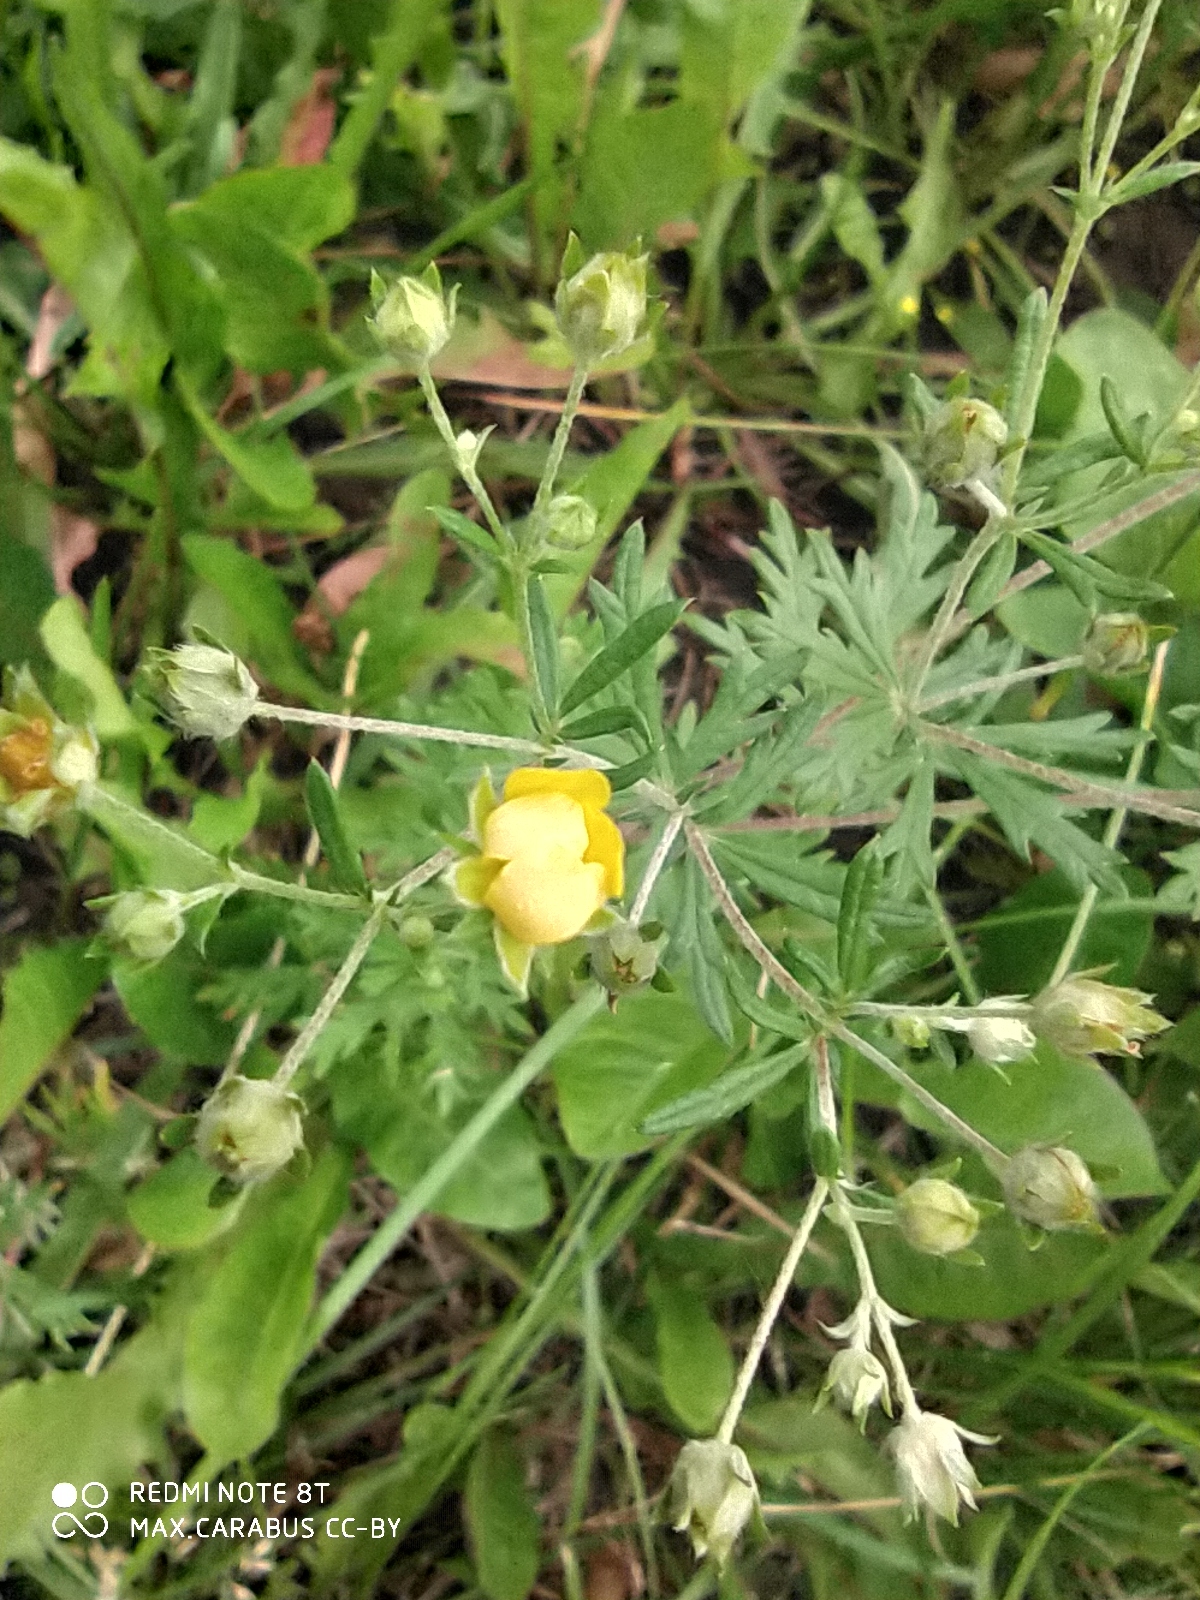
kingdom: Plantae
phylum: Tracheophyta
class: Magnoliopsida
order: Rosales
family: Rosaceae
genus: Potentilla
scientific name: Potentilla argentea
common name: Hoary cinquefoil
